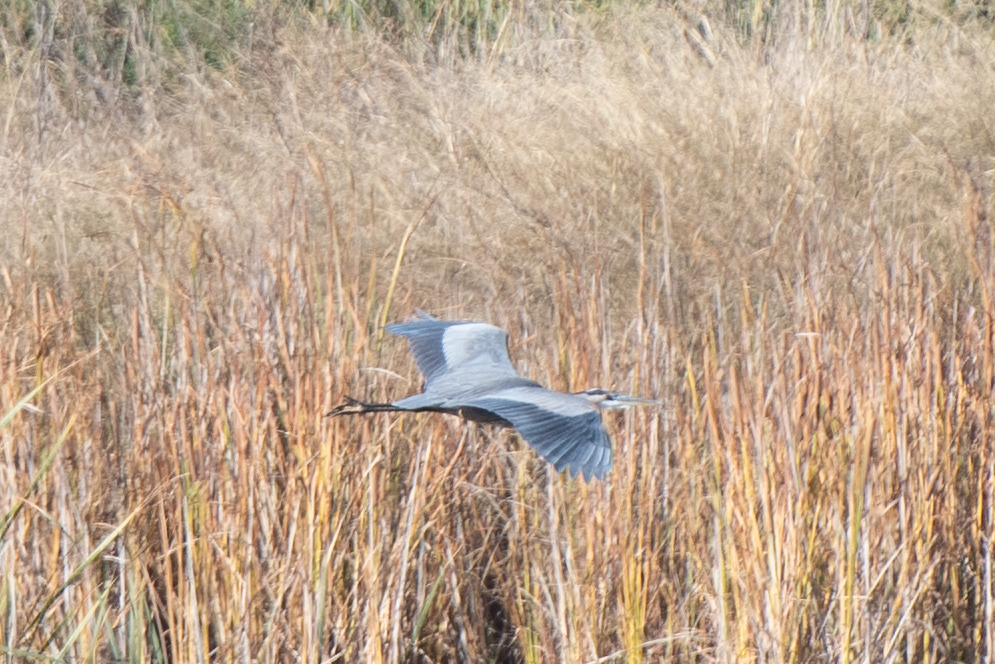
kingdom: Animalia
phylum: Chordata
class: Aves
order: Pelecaniformes
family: Ardeidae
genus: Ardea
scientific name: Ardea herodias
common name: Great blue heron
